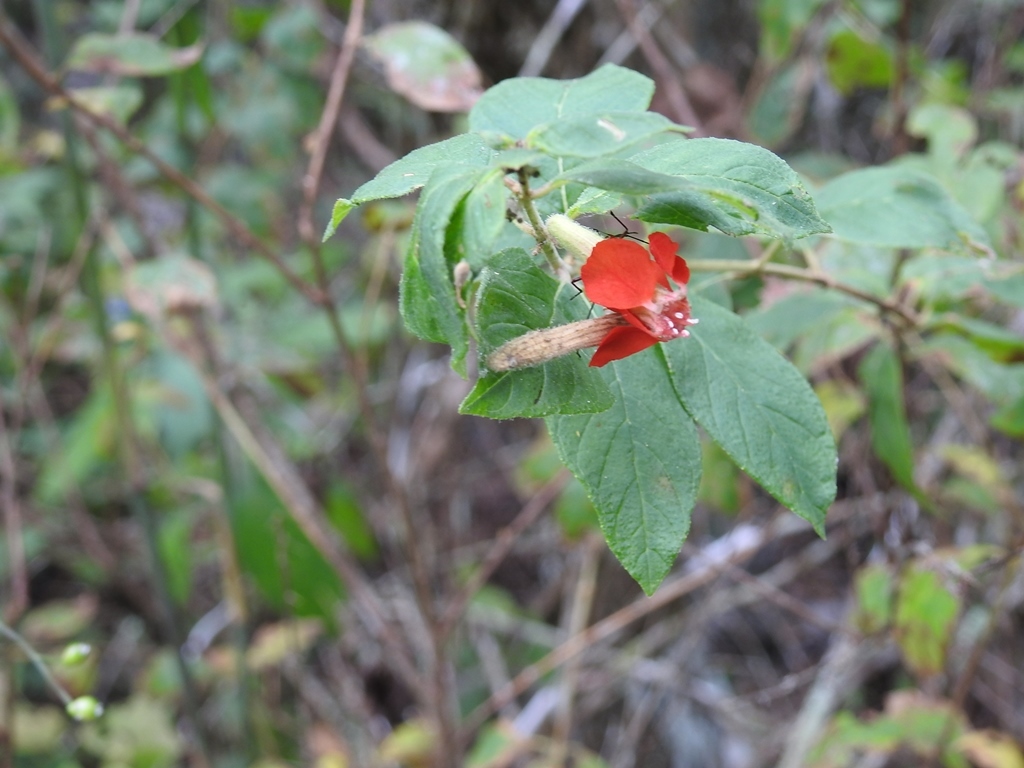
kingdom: Plantae
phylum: Tracheophyta
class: Magnoliopsida
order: Myrtales
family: Lythraceae
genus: Cuphea
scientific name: Cuphea intermedia
